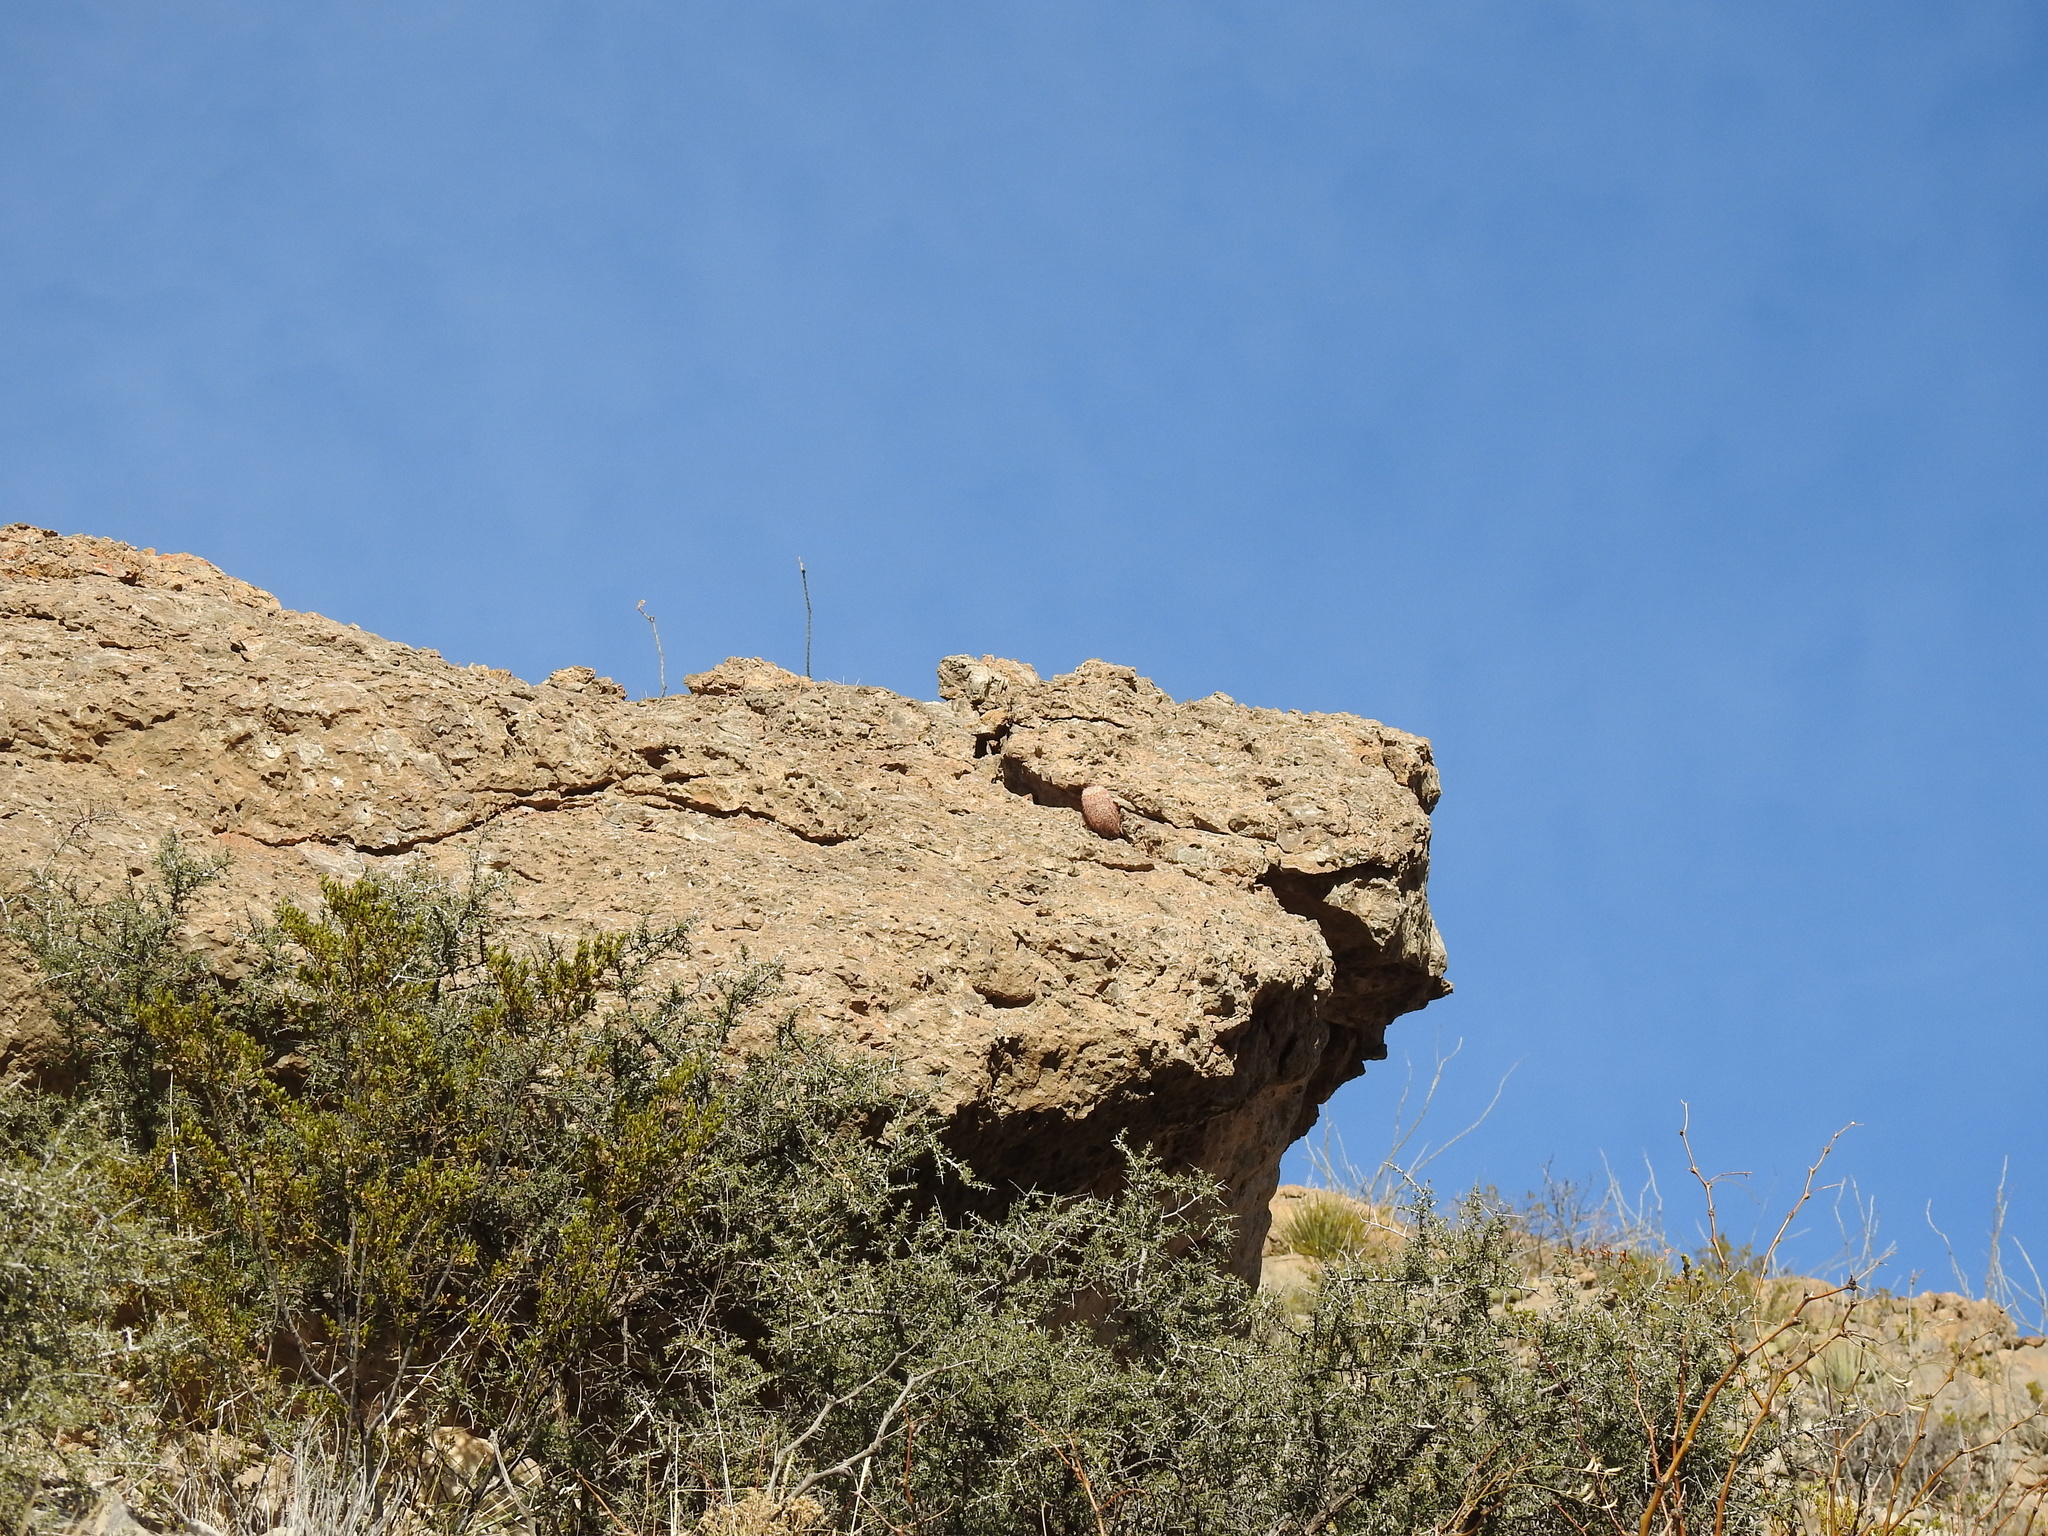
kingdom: Plantae
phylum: Tracheophyta
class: Magnoliopsida
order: Caryophyllales
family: Cactaceae
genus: Echinocereus
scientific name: Echinocereus dasyacanthus
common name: Spiny hedgehog cactus
